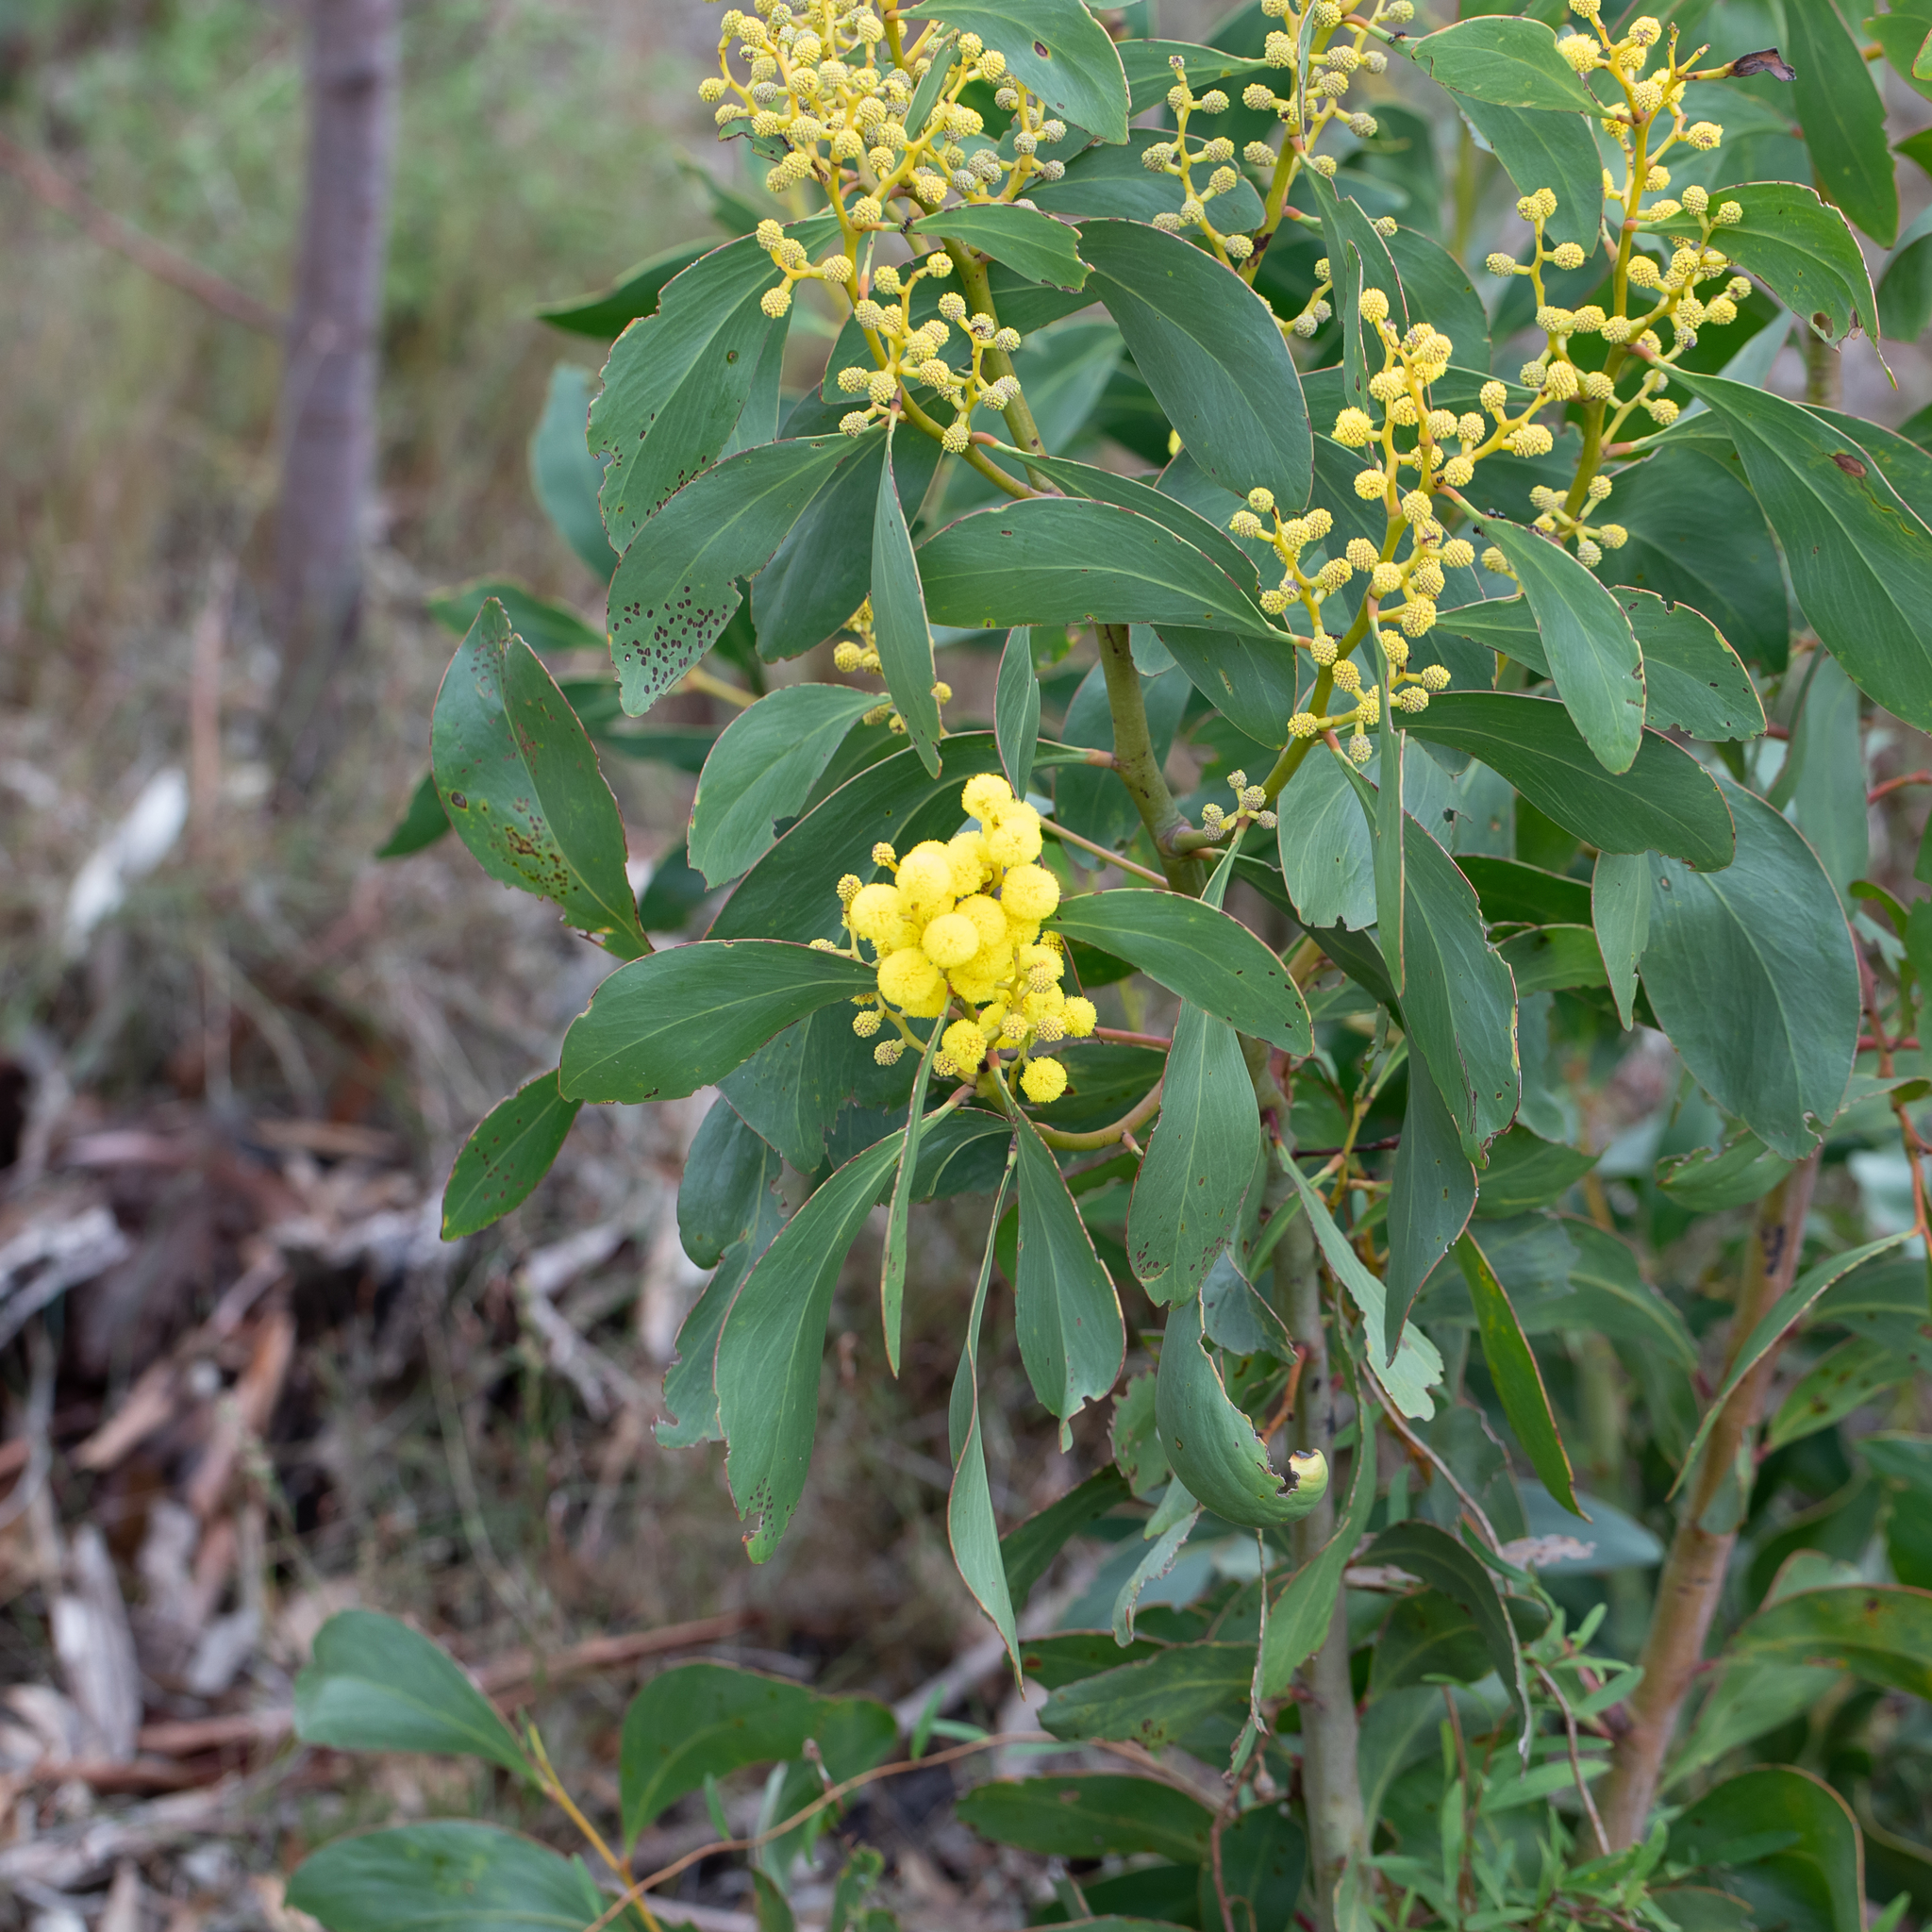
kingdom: Plantae
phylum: Tracheophyta
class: Magnoliopsida
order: Fabales
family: Fabaceae
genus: Acacia
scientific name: Acacia pycnantha
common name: Golden wattle
